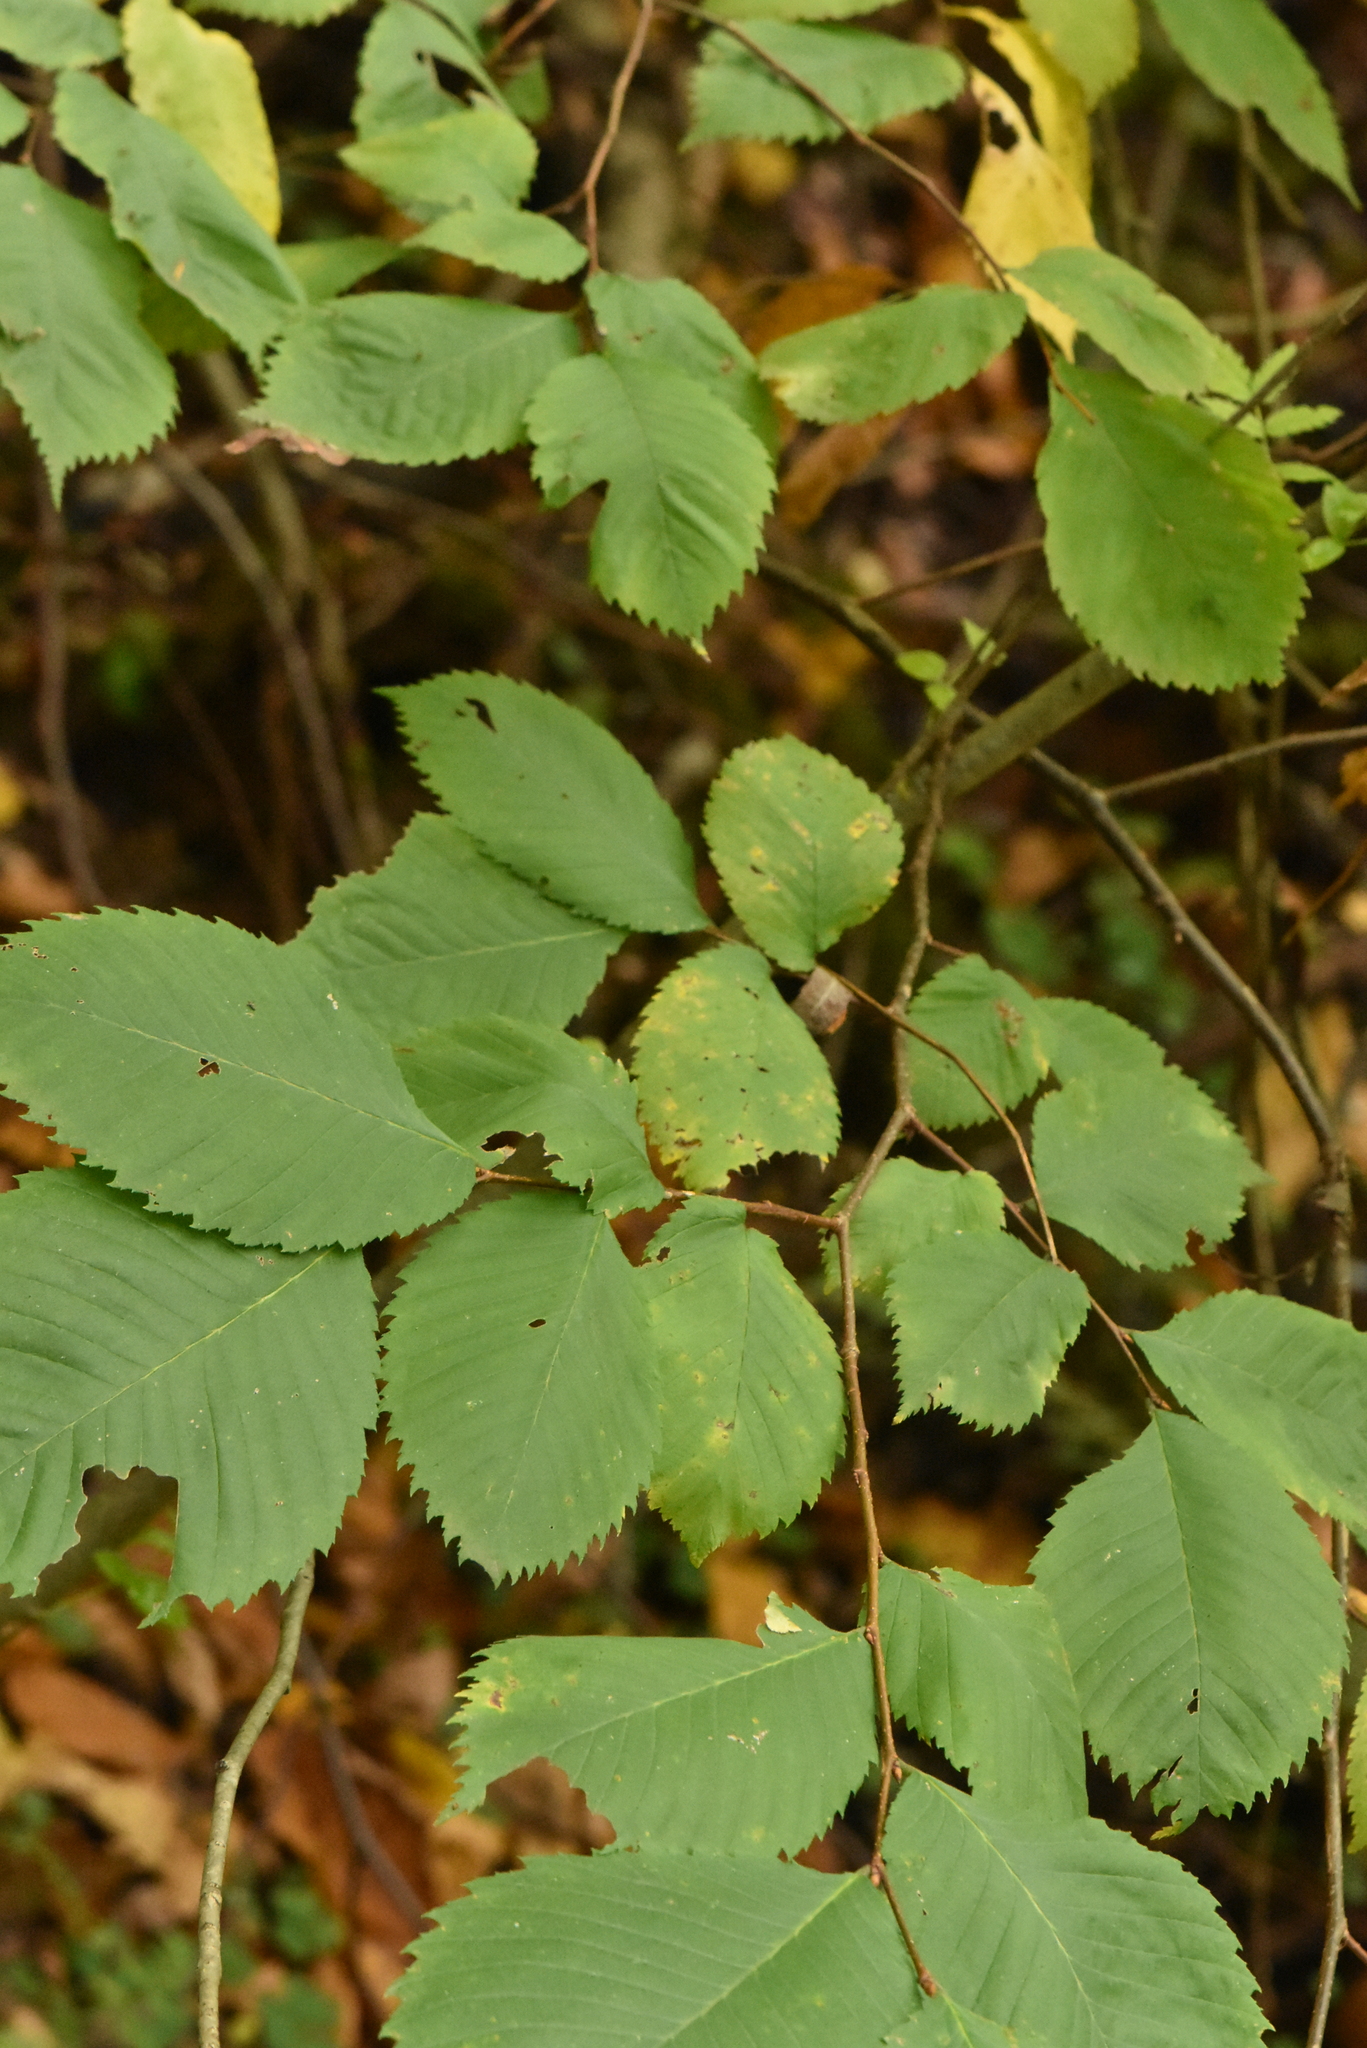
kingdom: Plantae
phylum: Tracheophyta
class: Magnoliopsida
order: Rosales
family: Ulmaceae
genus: Ulmus
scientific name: Ulmus laevis
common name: European white-elm
